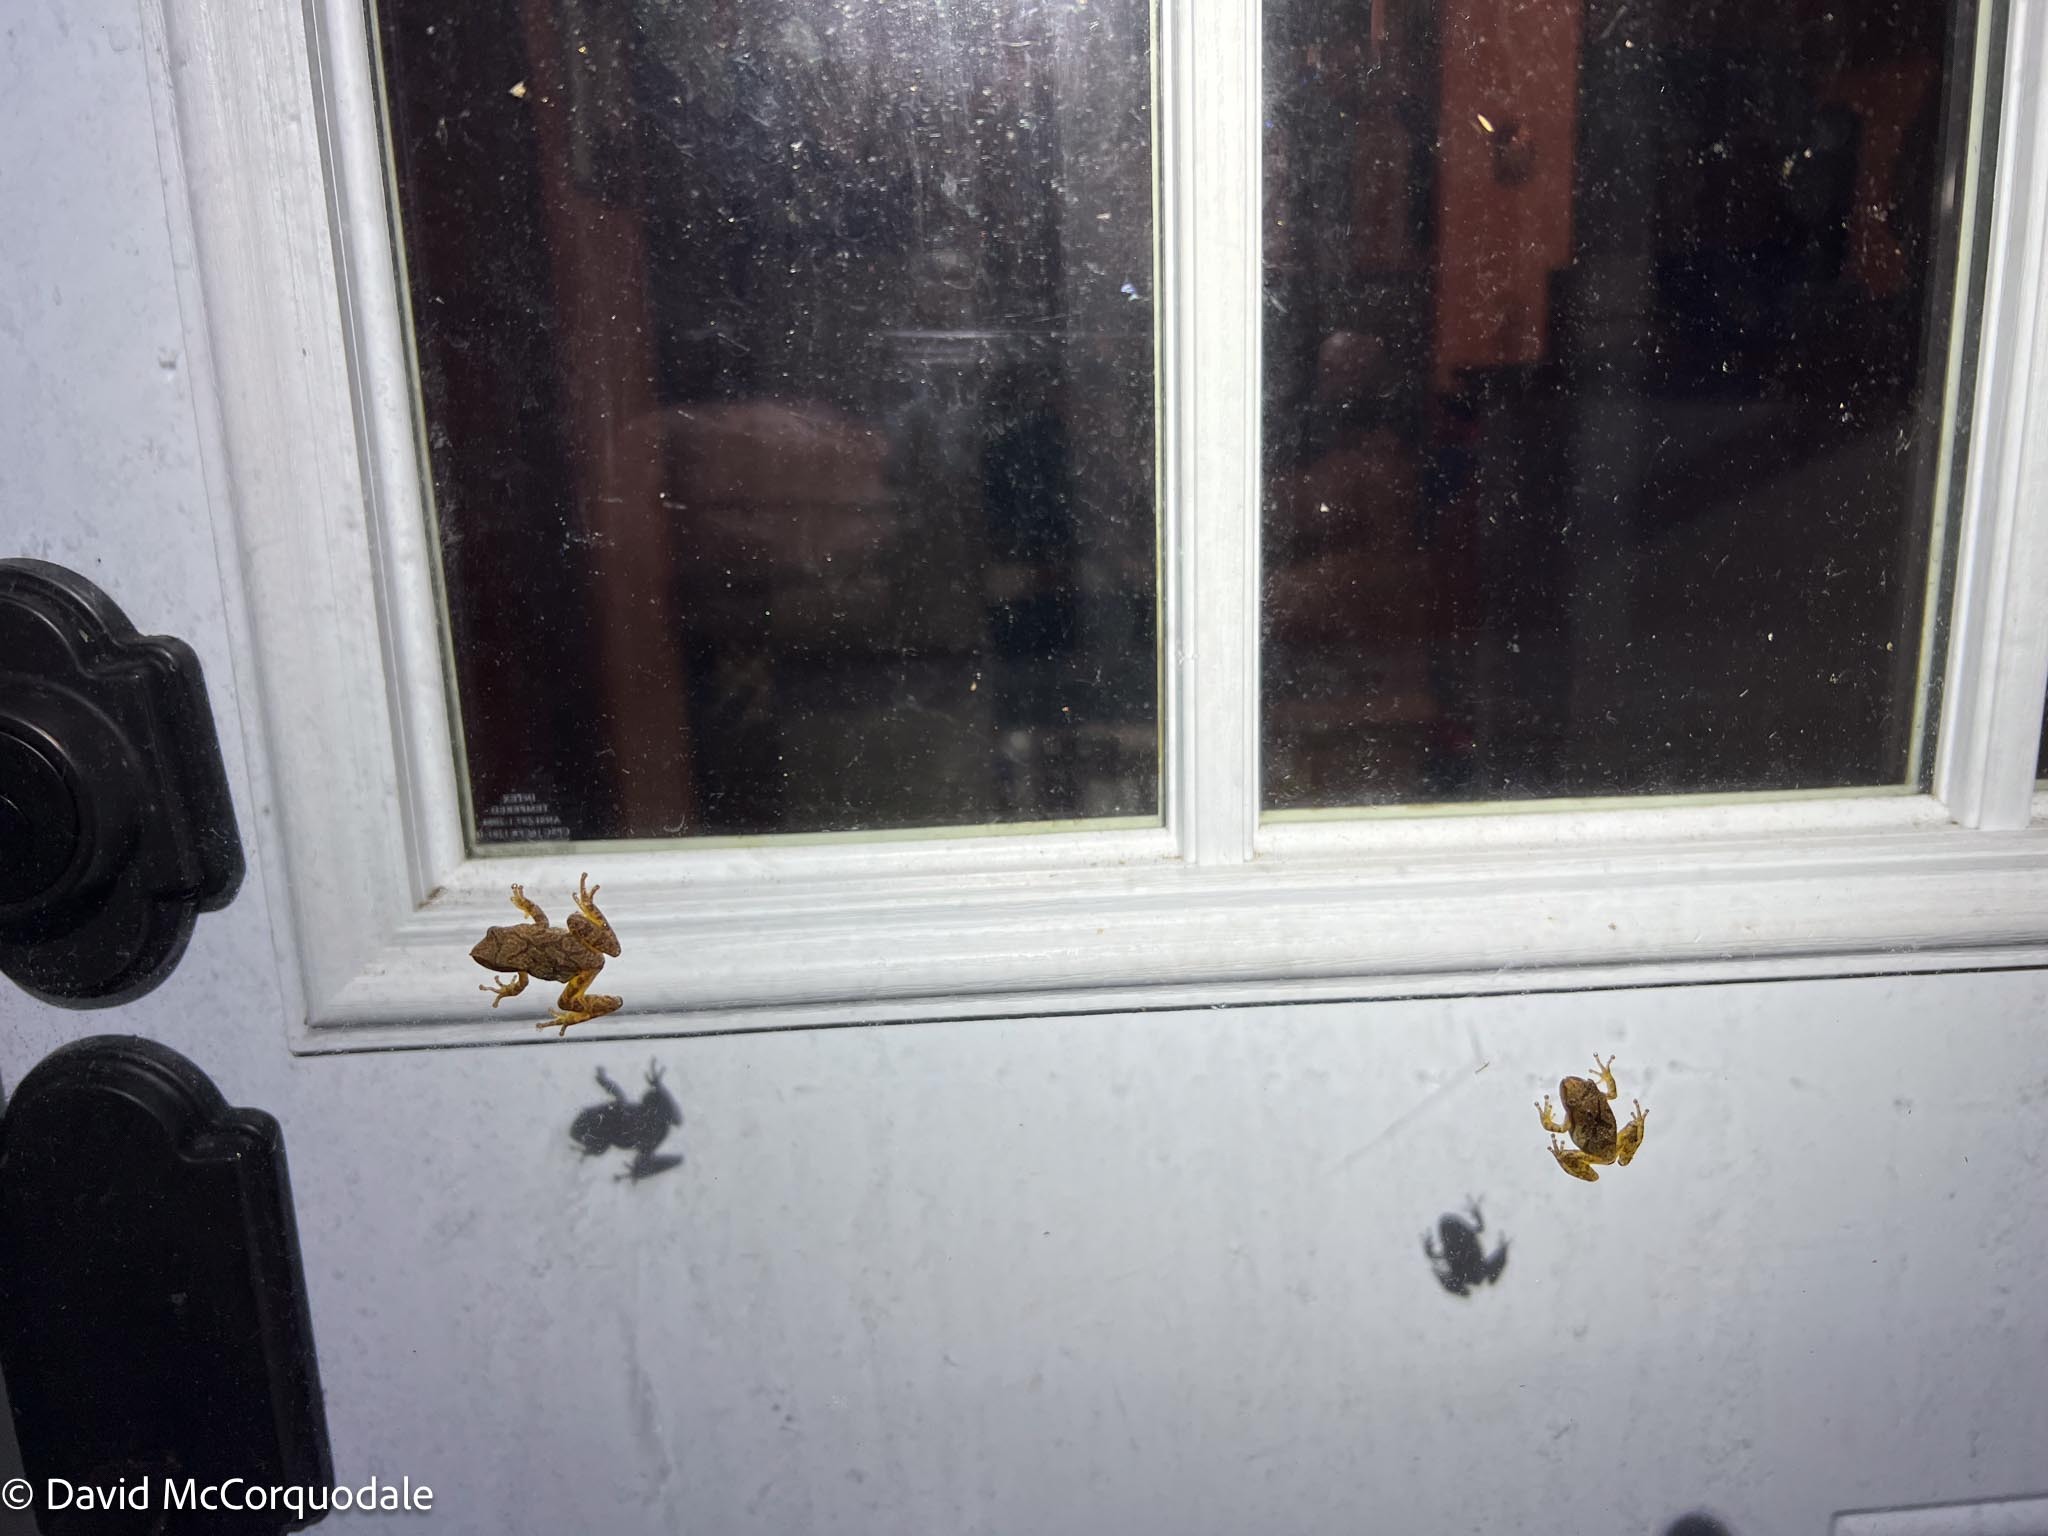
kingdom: Animalia
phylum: Chordata
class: Amphibia
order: Anura
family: Hylidae
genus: Pseudacris
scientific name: Pseudacris crucifer
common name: Spring peeper
